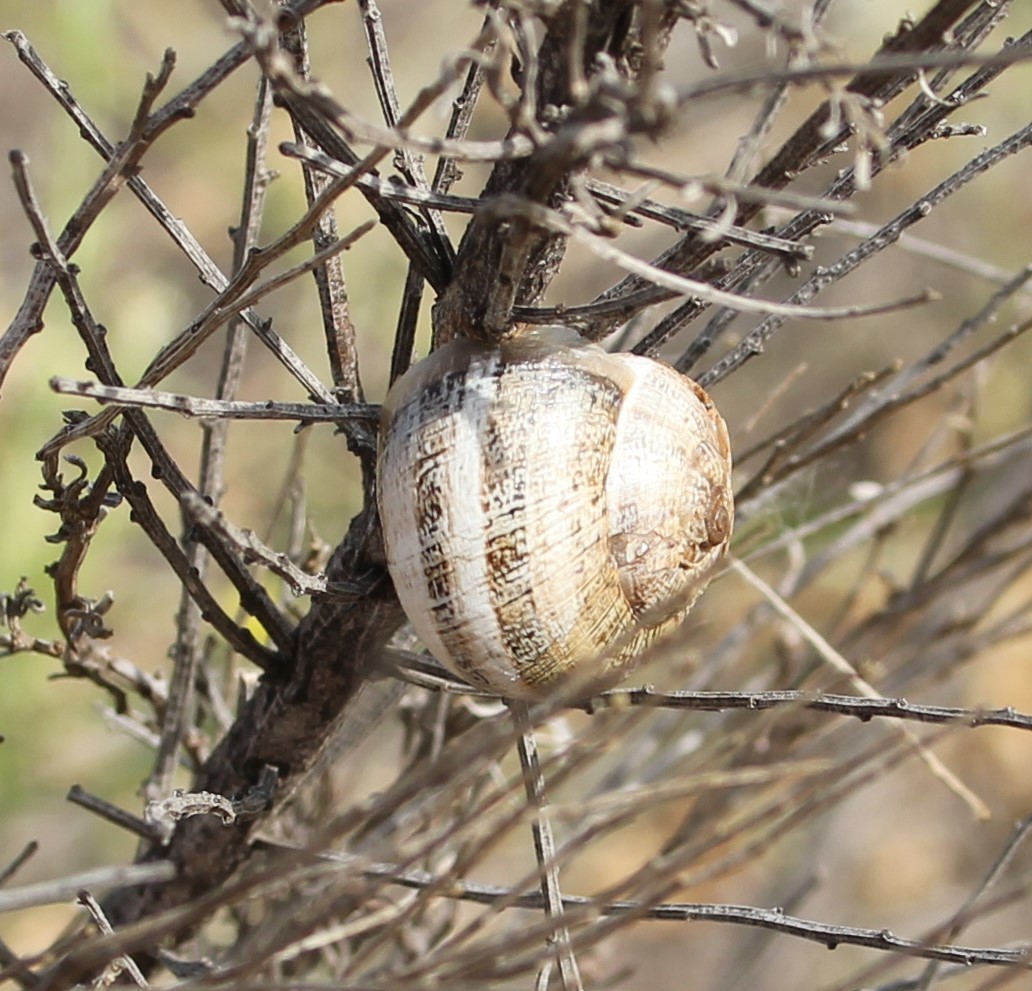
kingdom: Animalia
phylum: Mollusca
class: Gastropoda
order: Stylommatophora
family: Helicidae
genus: Otala
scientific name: Otala lactea
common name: Milk snail
